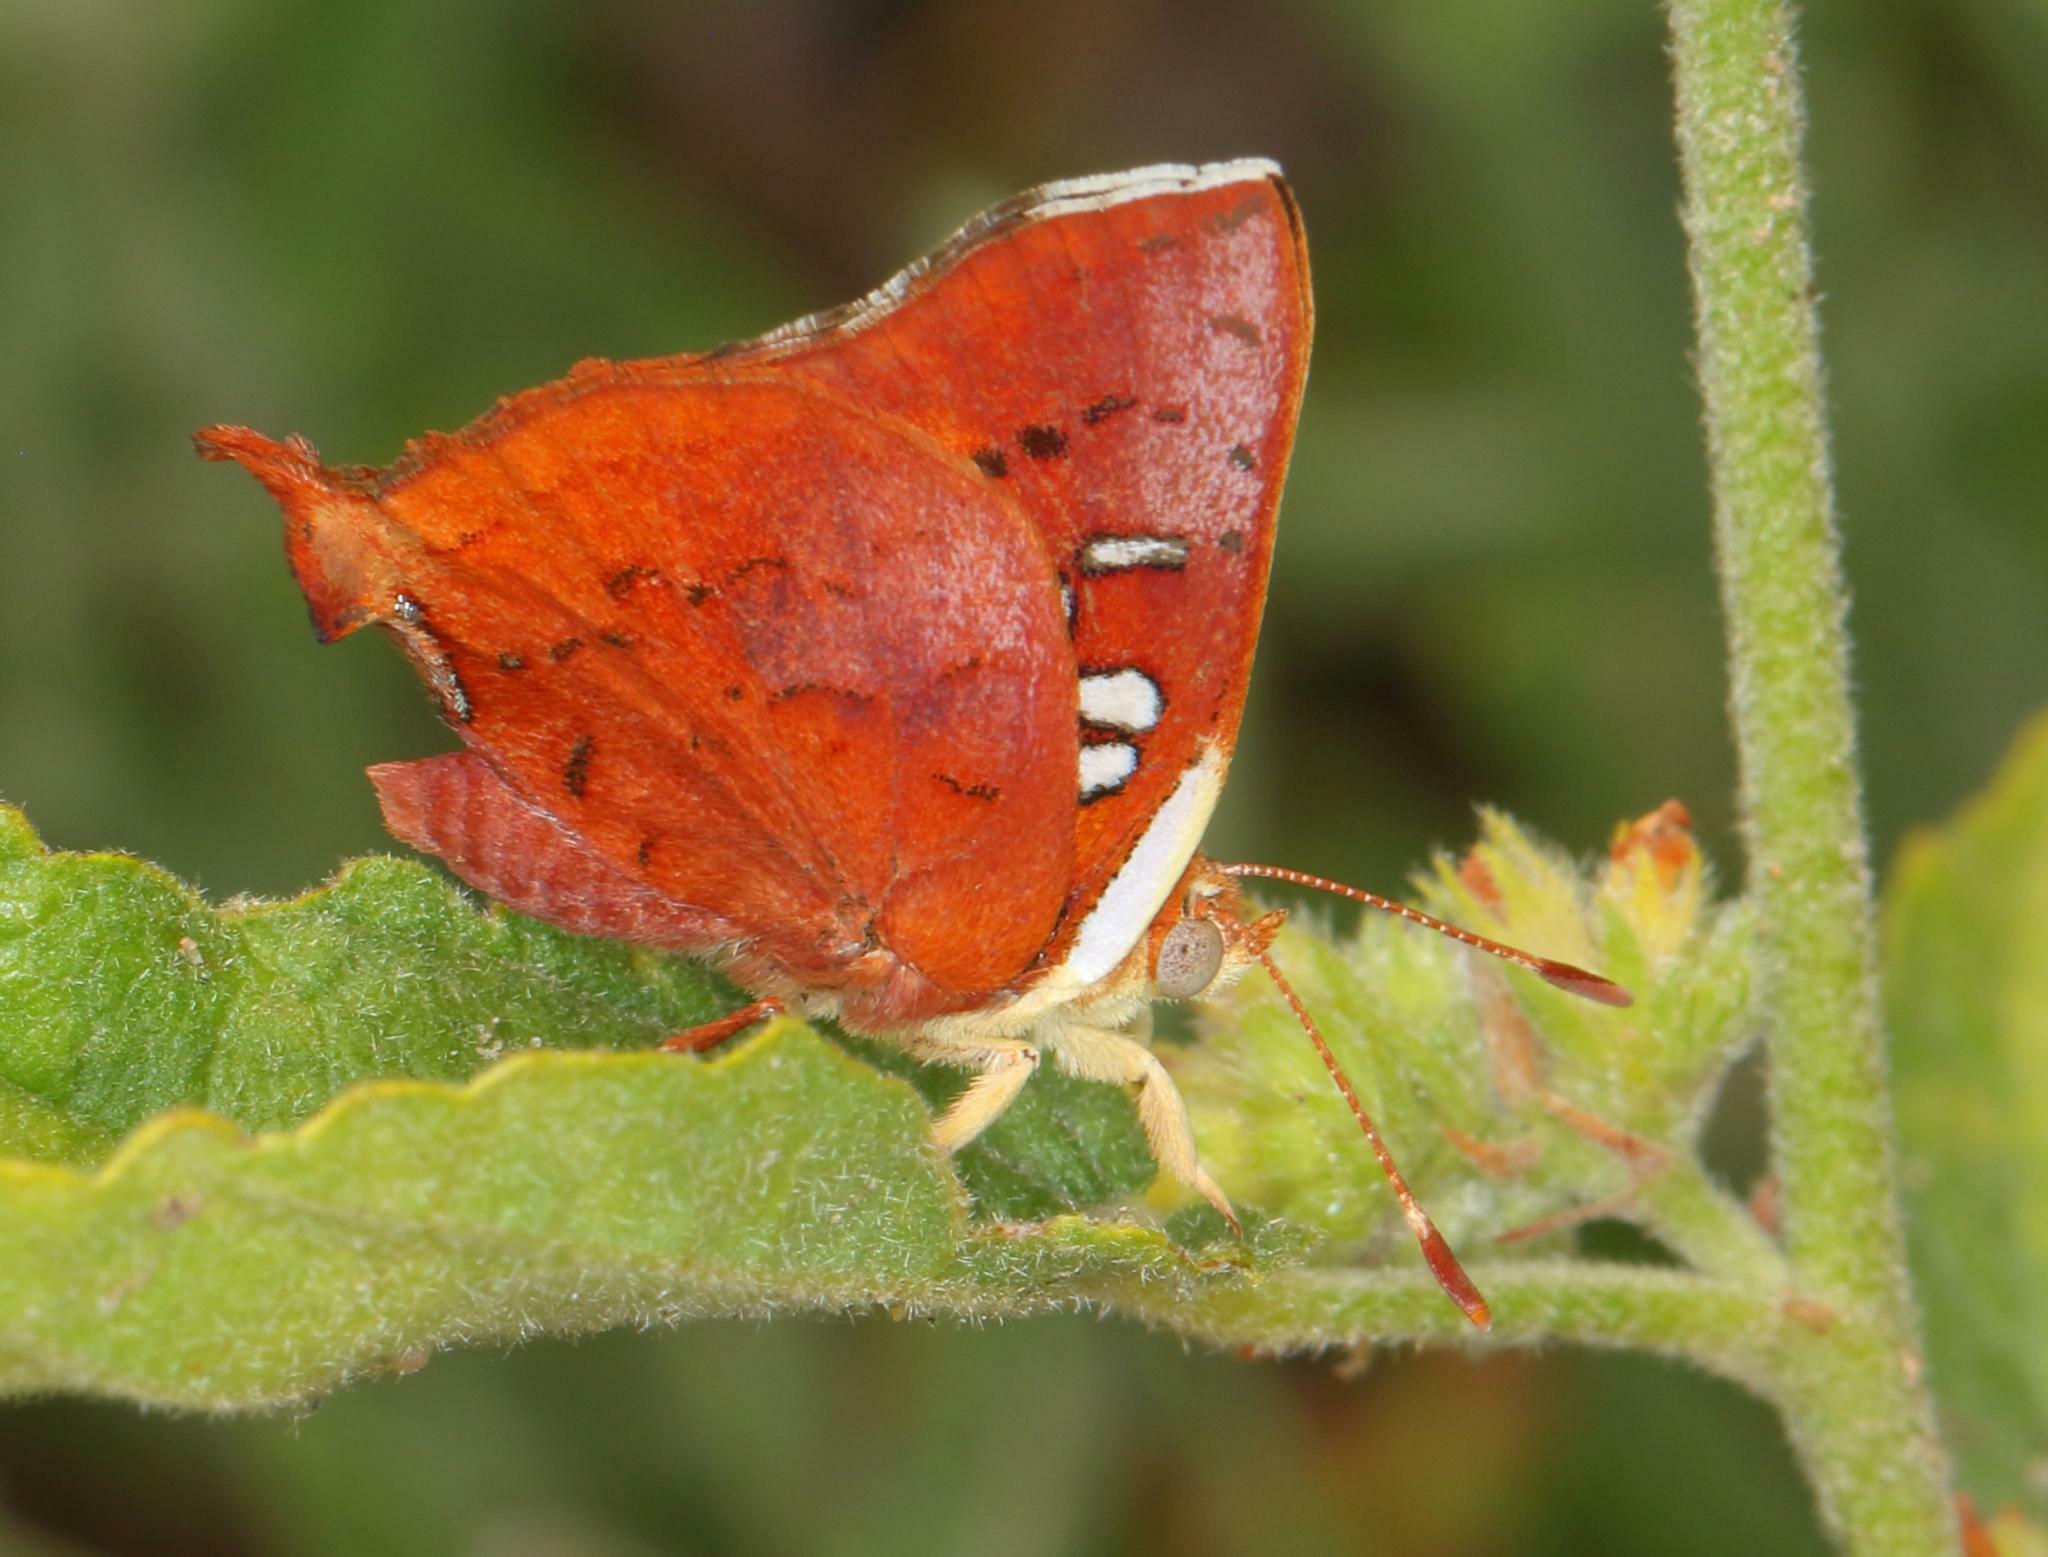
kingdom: Animalia
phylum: Arthropoda
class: Insecta
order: Lepidoptera
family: Lycaenidae
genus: Axiocerses
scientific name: Axiocerses amanga
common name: Bush scarlet
